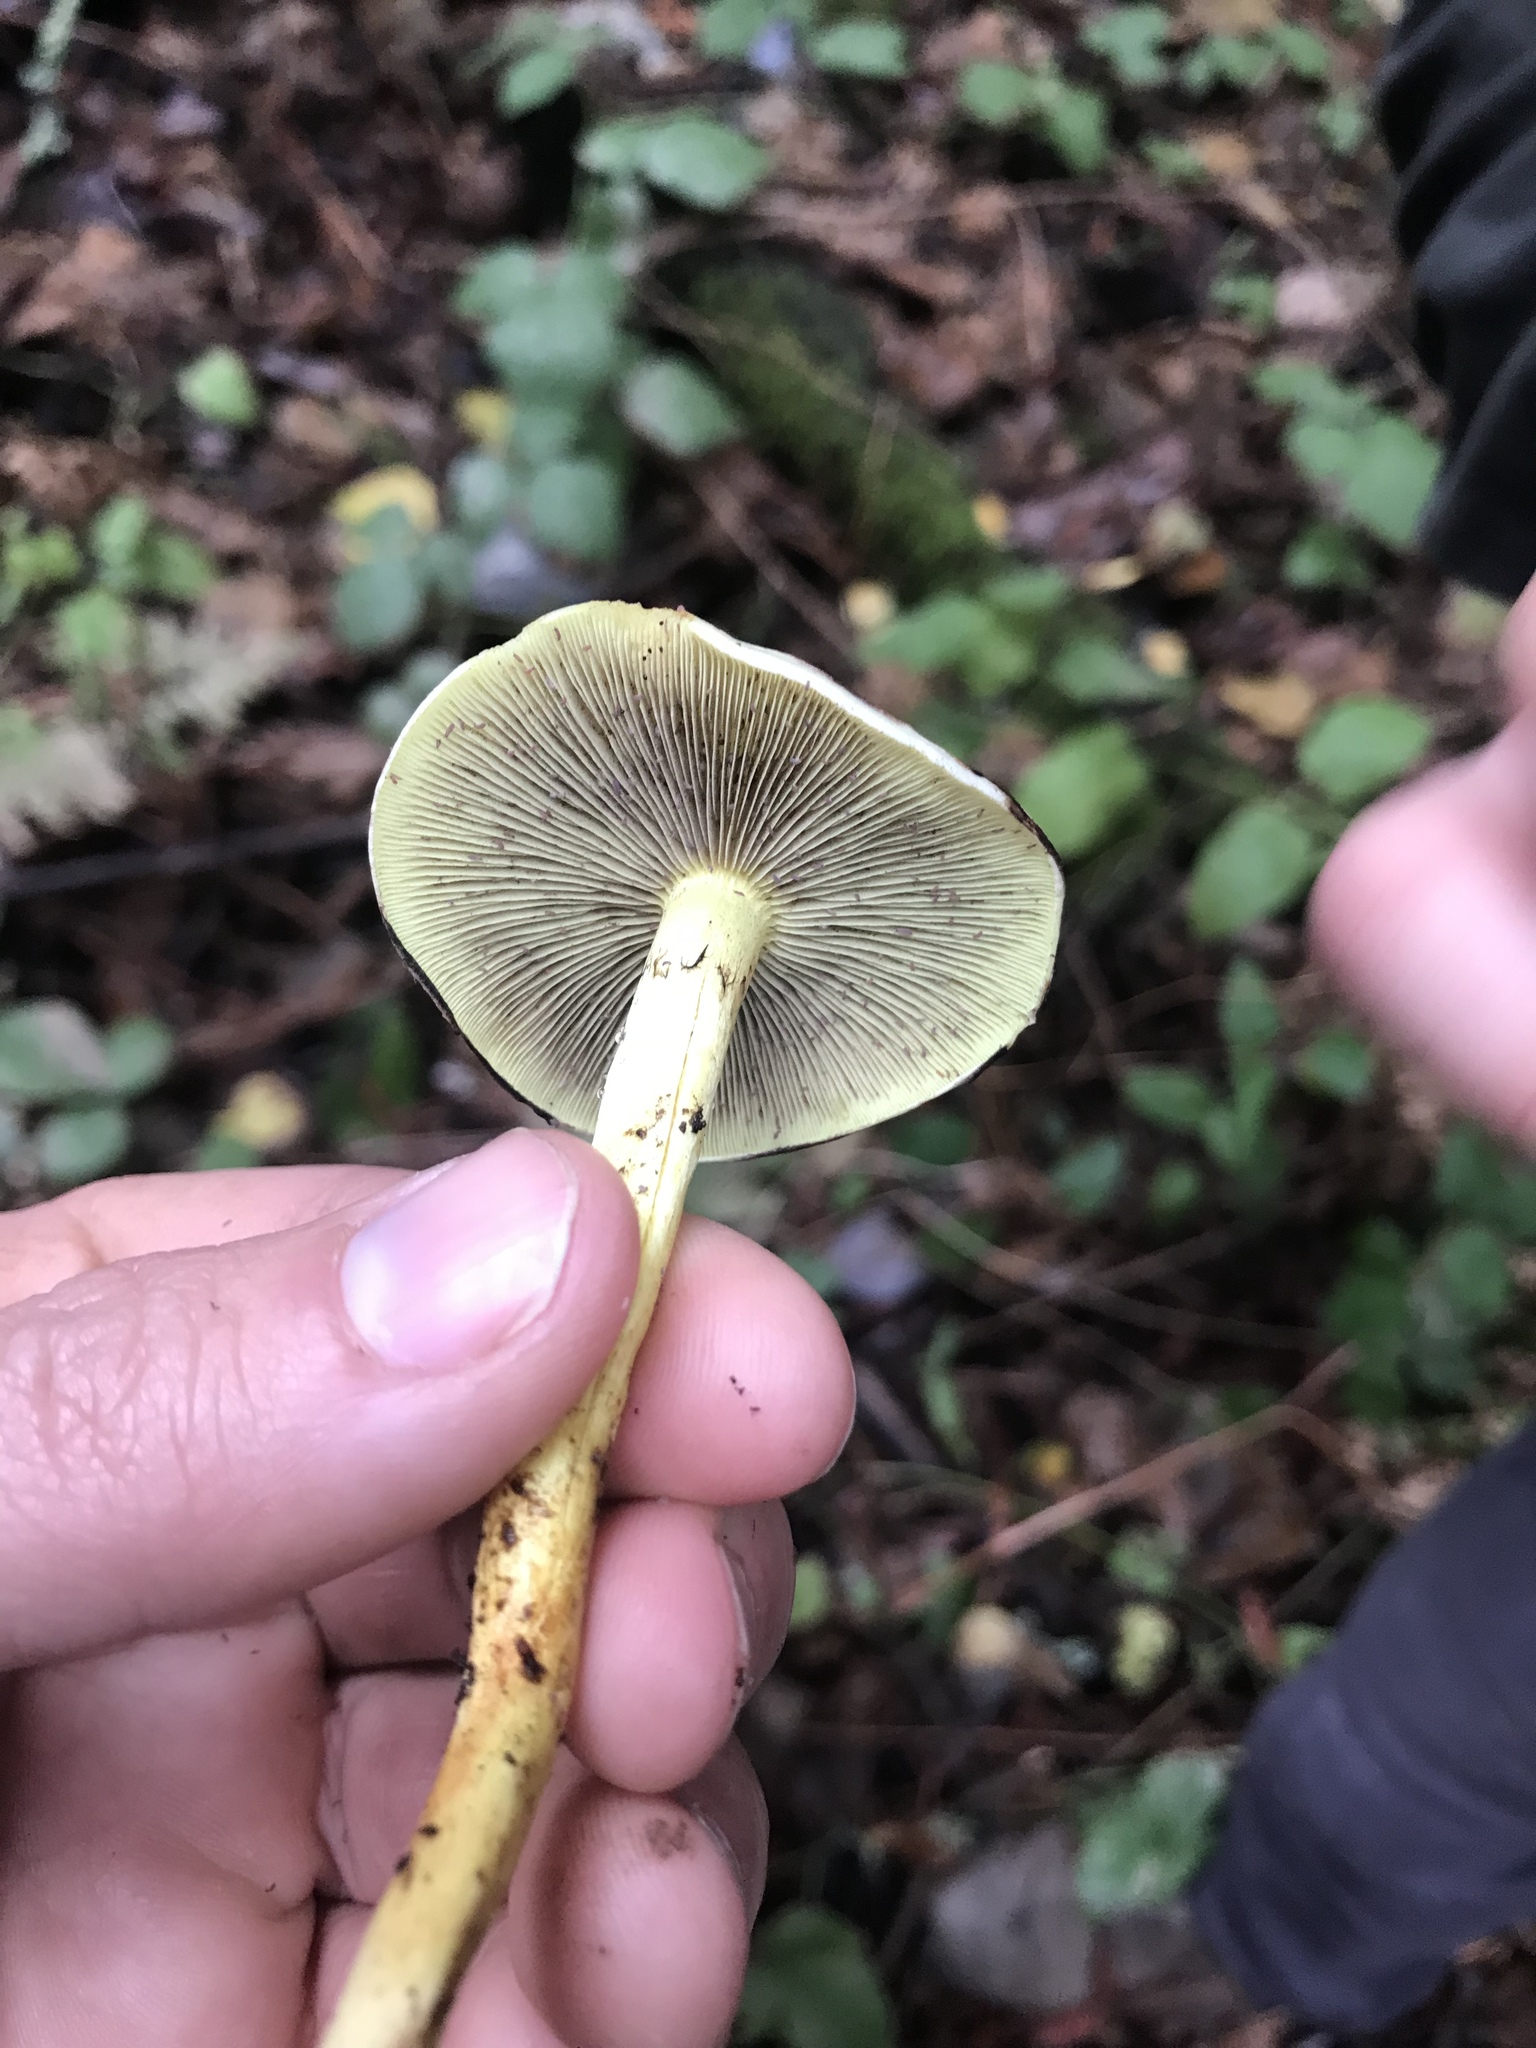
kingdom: Fungi
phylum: Basidiomycota
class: Agaricomycetes
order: Agaricales
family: Strophariaceae
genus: Hypholoma
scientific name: Hypholoma fasciculare
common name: Sulphur tuft
